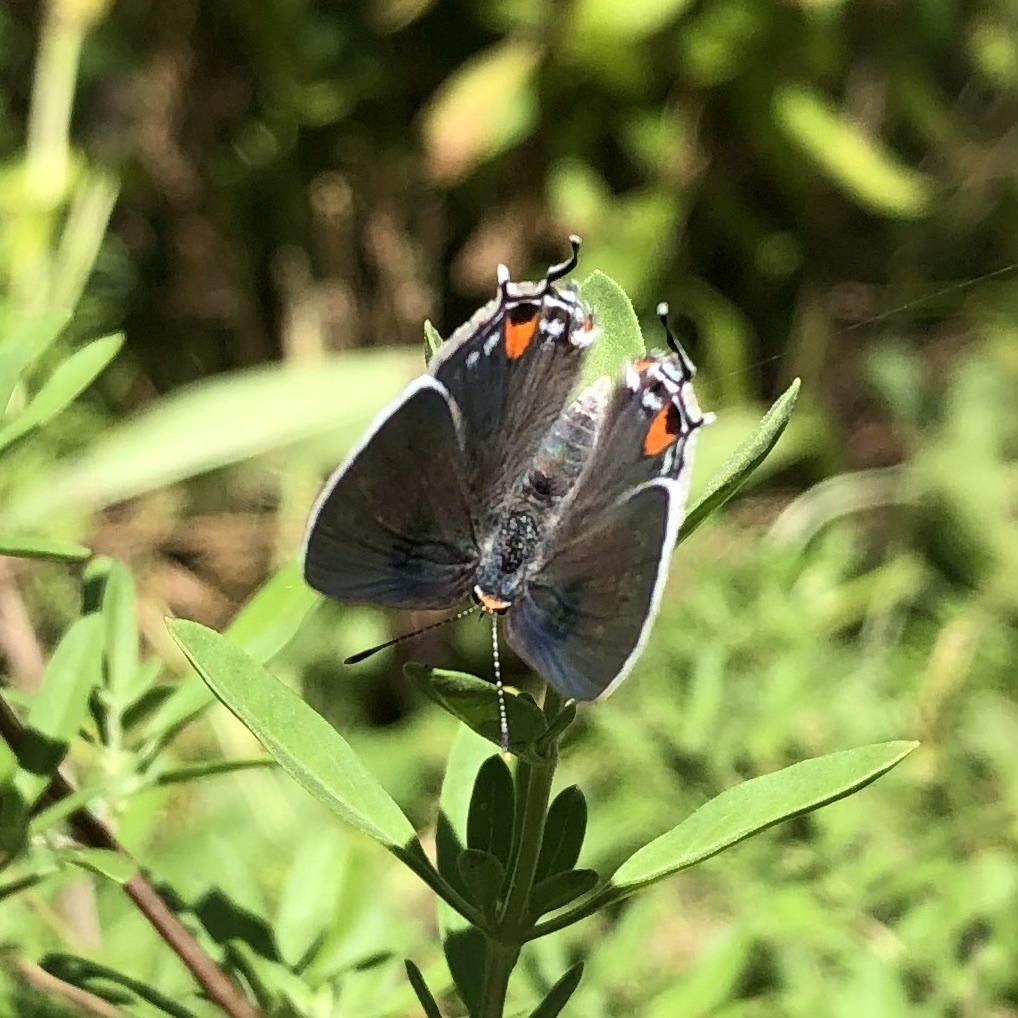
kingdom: Animalia
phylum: Arthropoda
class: Insecta
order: Lepidoptera
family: Lycaenidae
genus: Strymon
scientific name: Strymon melinus
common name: Gray hairstreak
